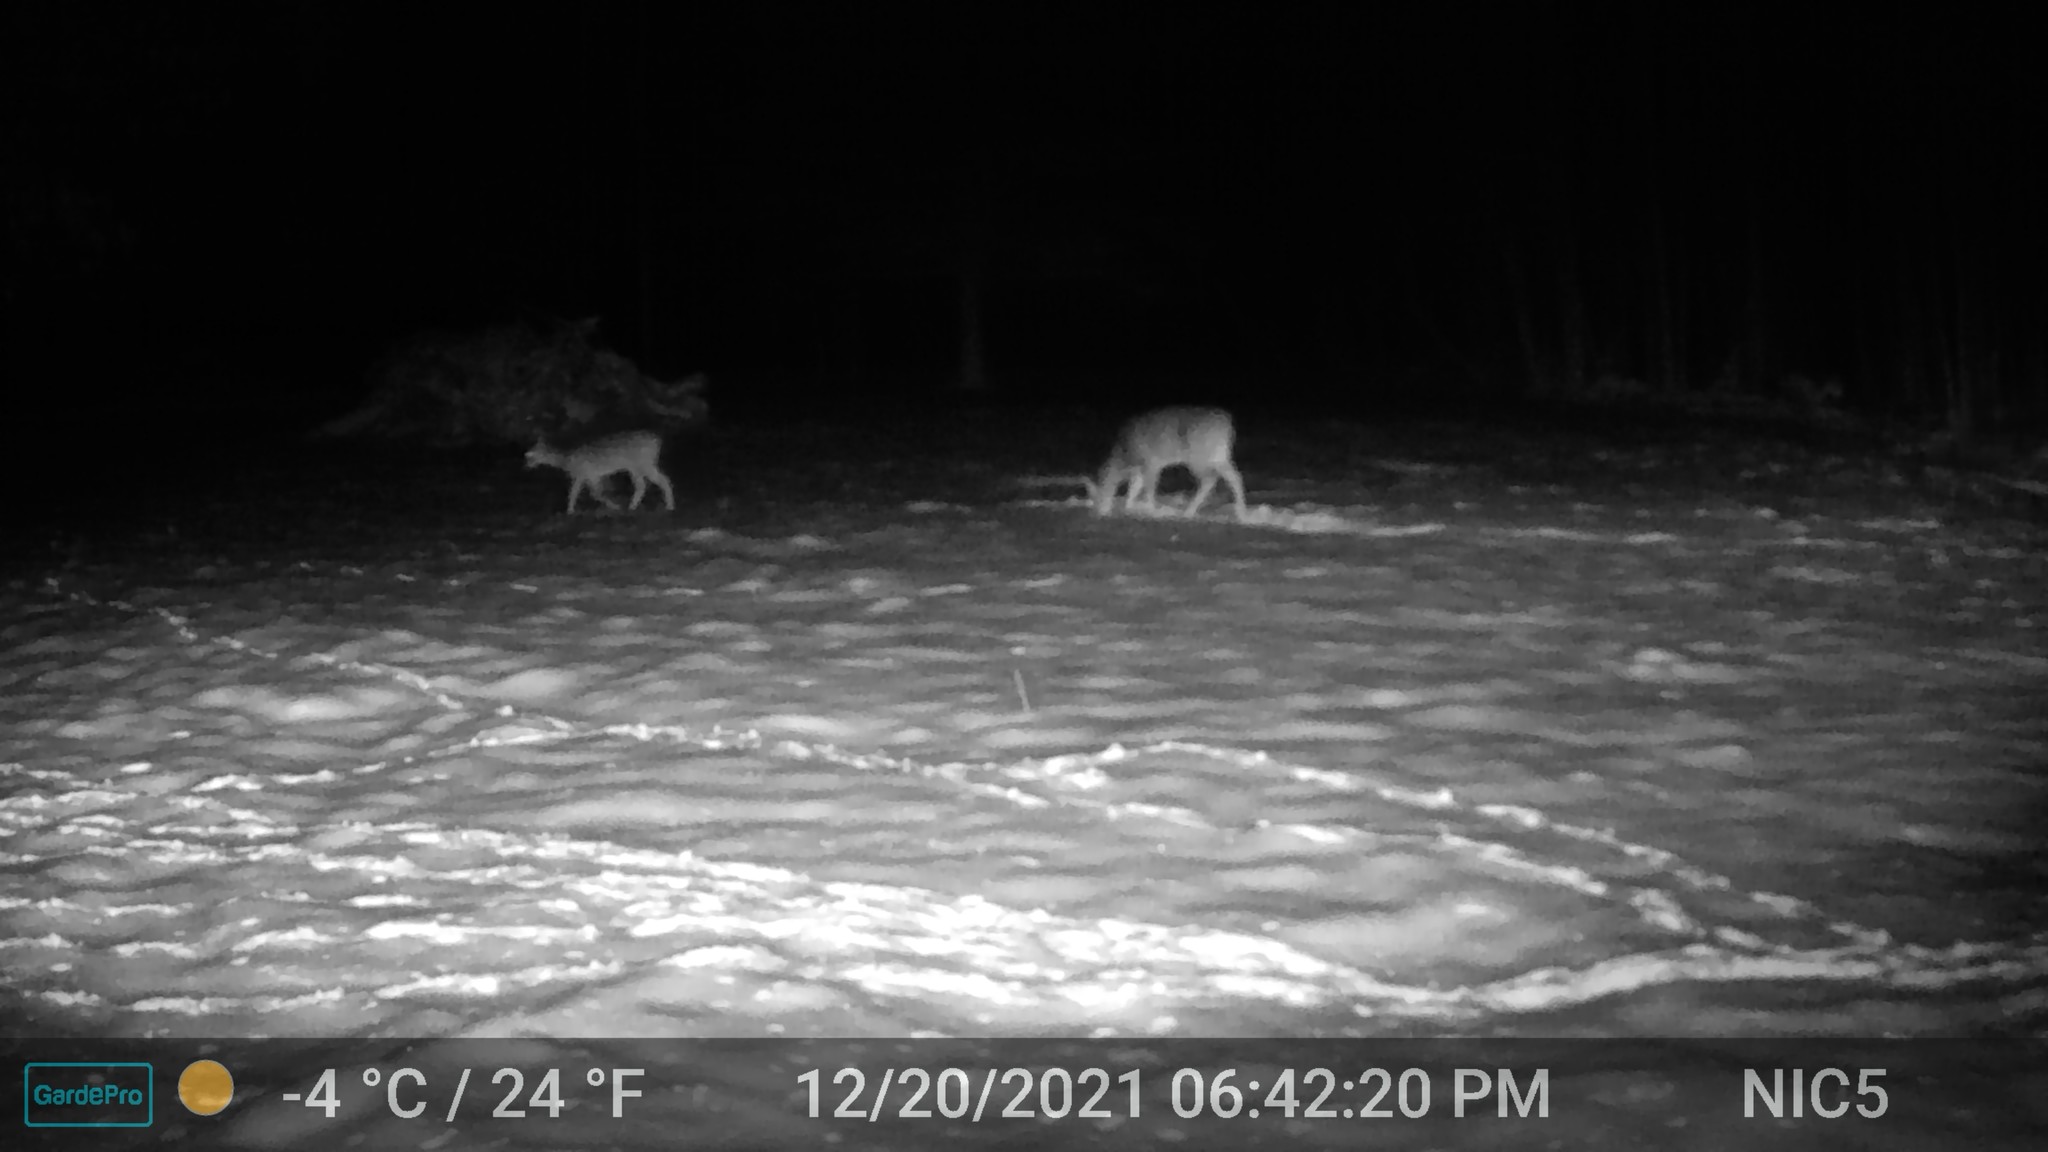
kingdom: Animalia
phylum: Chordata
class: Mammalia
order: Artiodactyla
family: Cervidae
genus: Odocoileus
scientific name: Odocoileus virginianus
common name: White-tailed deer
